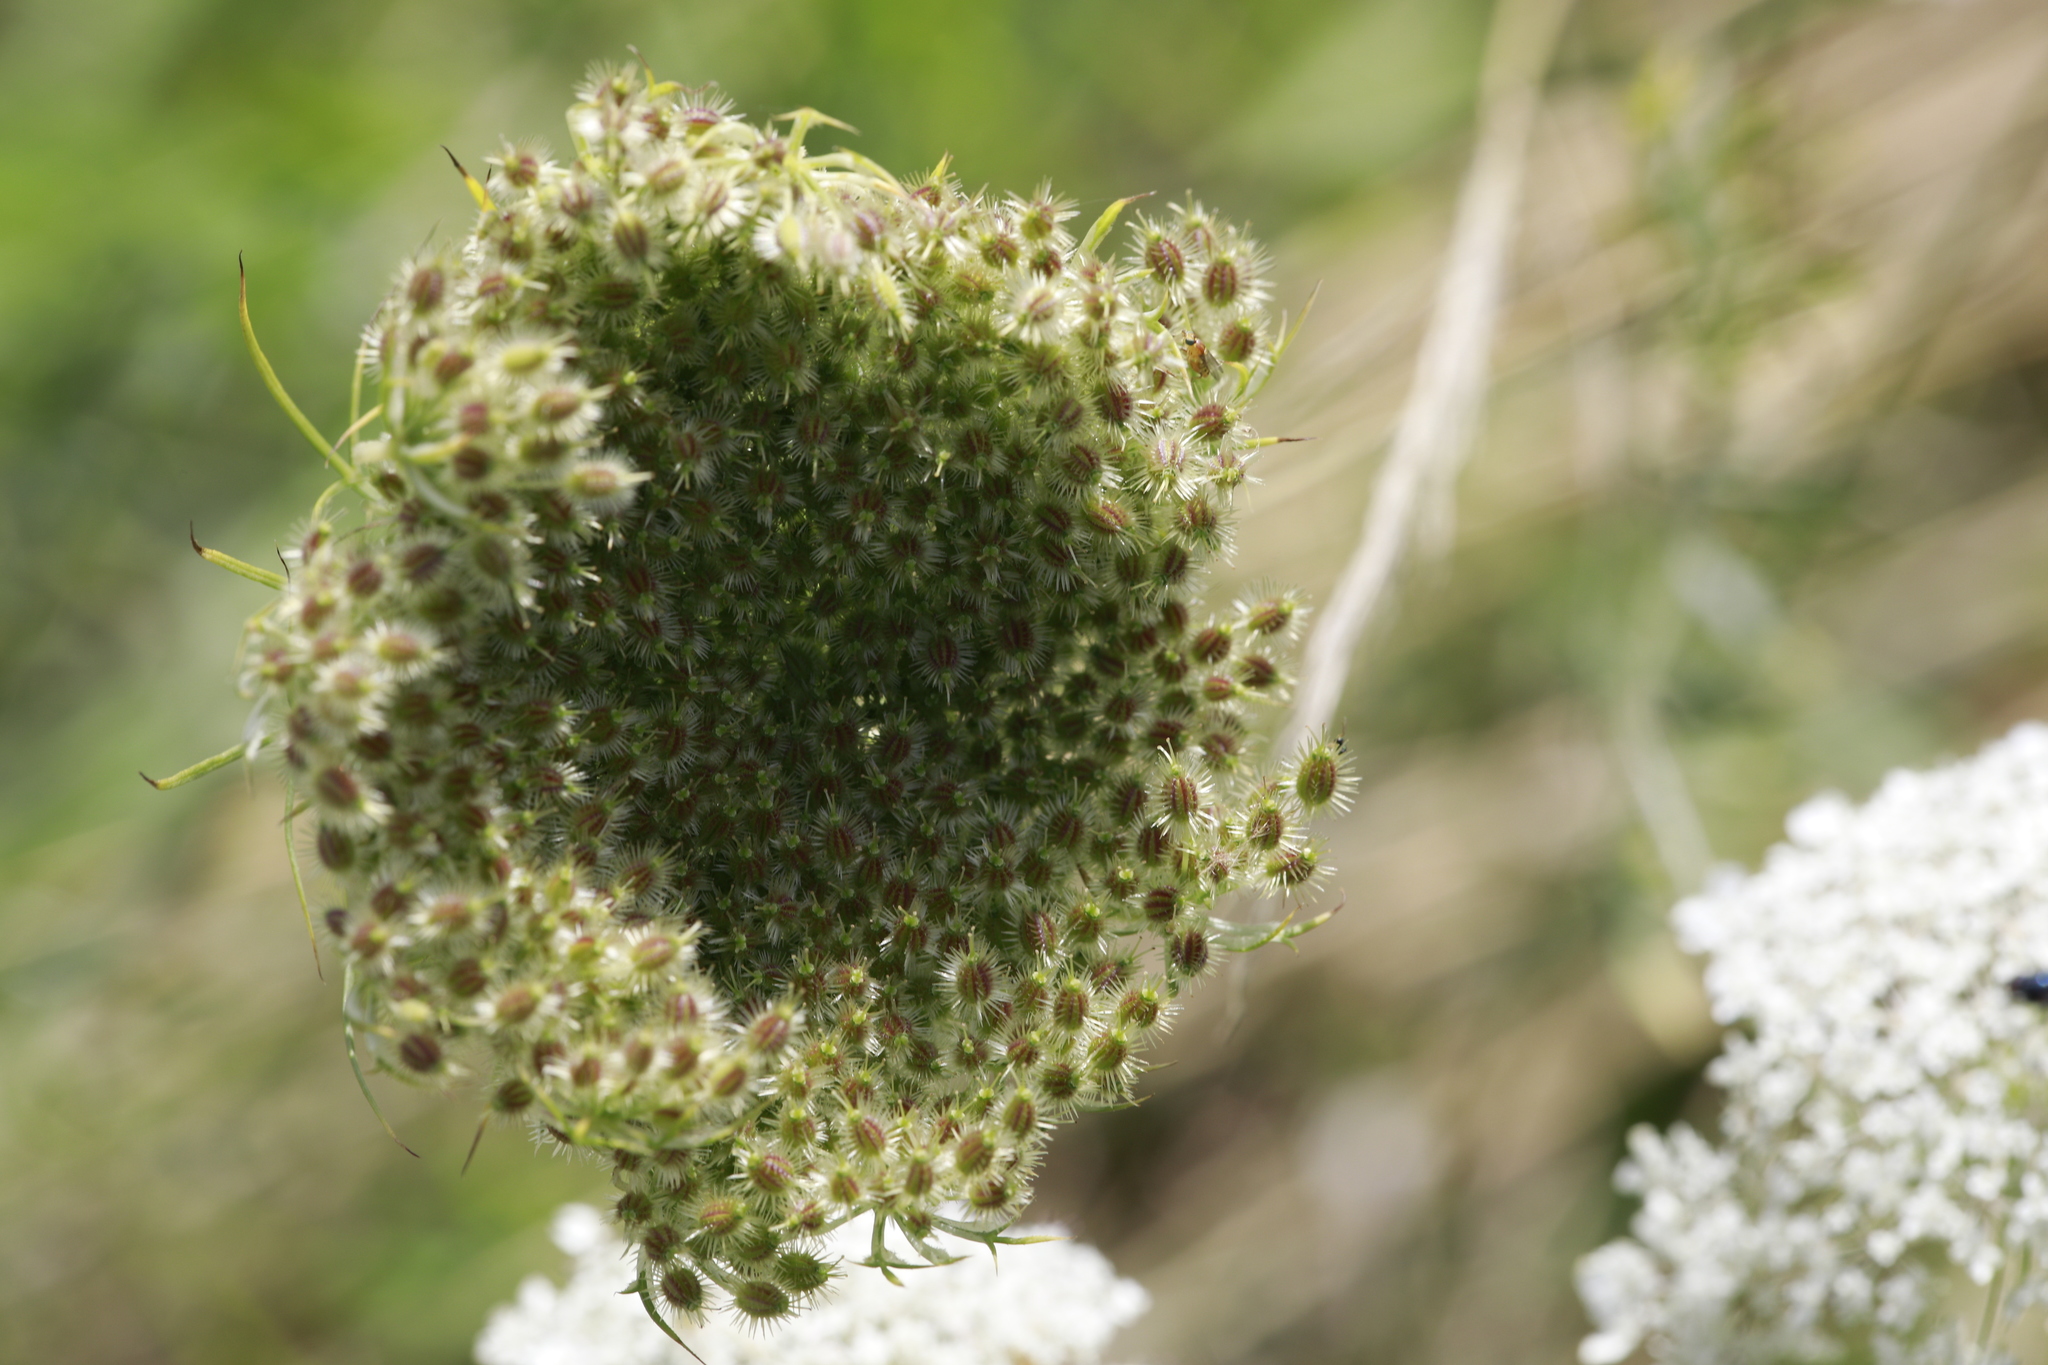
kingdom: Plantae
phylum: Tracheophyta
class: Magnoliopsida
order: Apiales
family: Apiaceae
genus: Daucus
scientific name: Daucus carota
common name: Wild carrot
